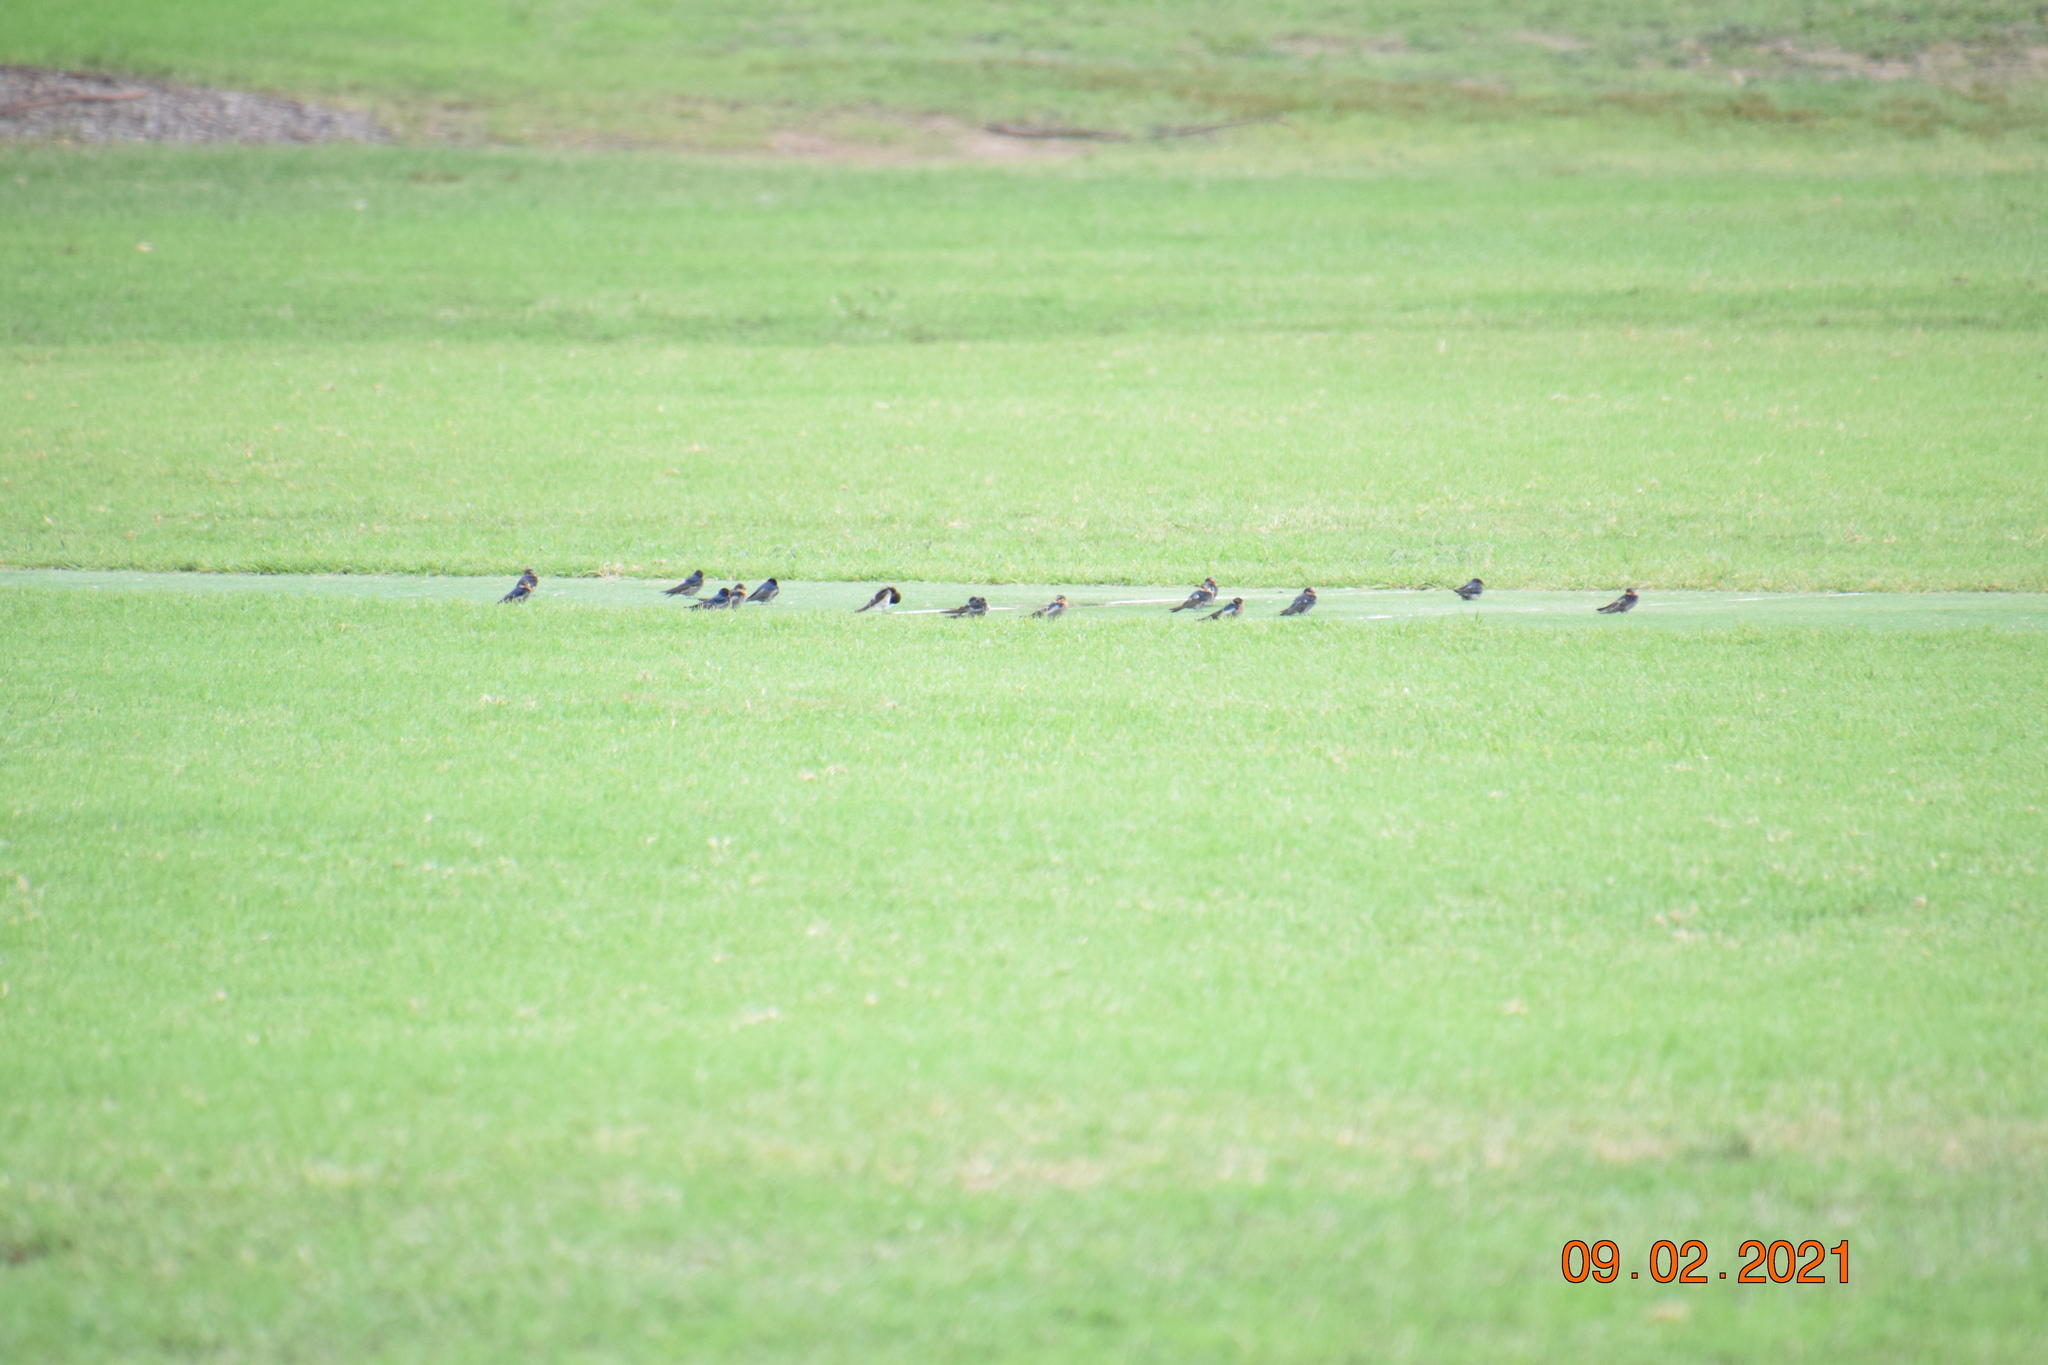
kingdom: Animalia
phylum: Chordata
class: Aves
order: Passeriformes
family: Hirundinidae
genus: Hirundo
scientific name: Hirundo neoxena
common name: Welcome swallow
